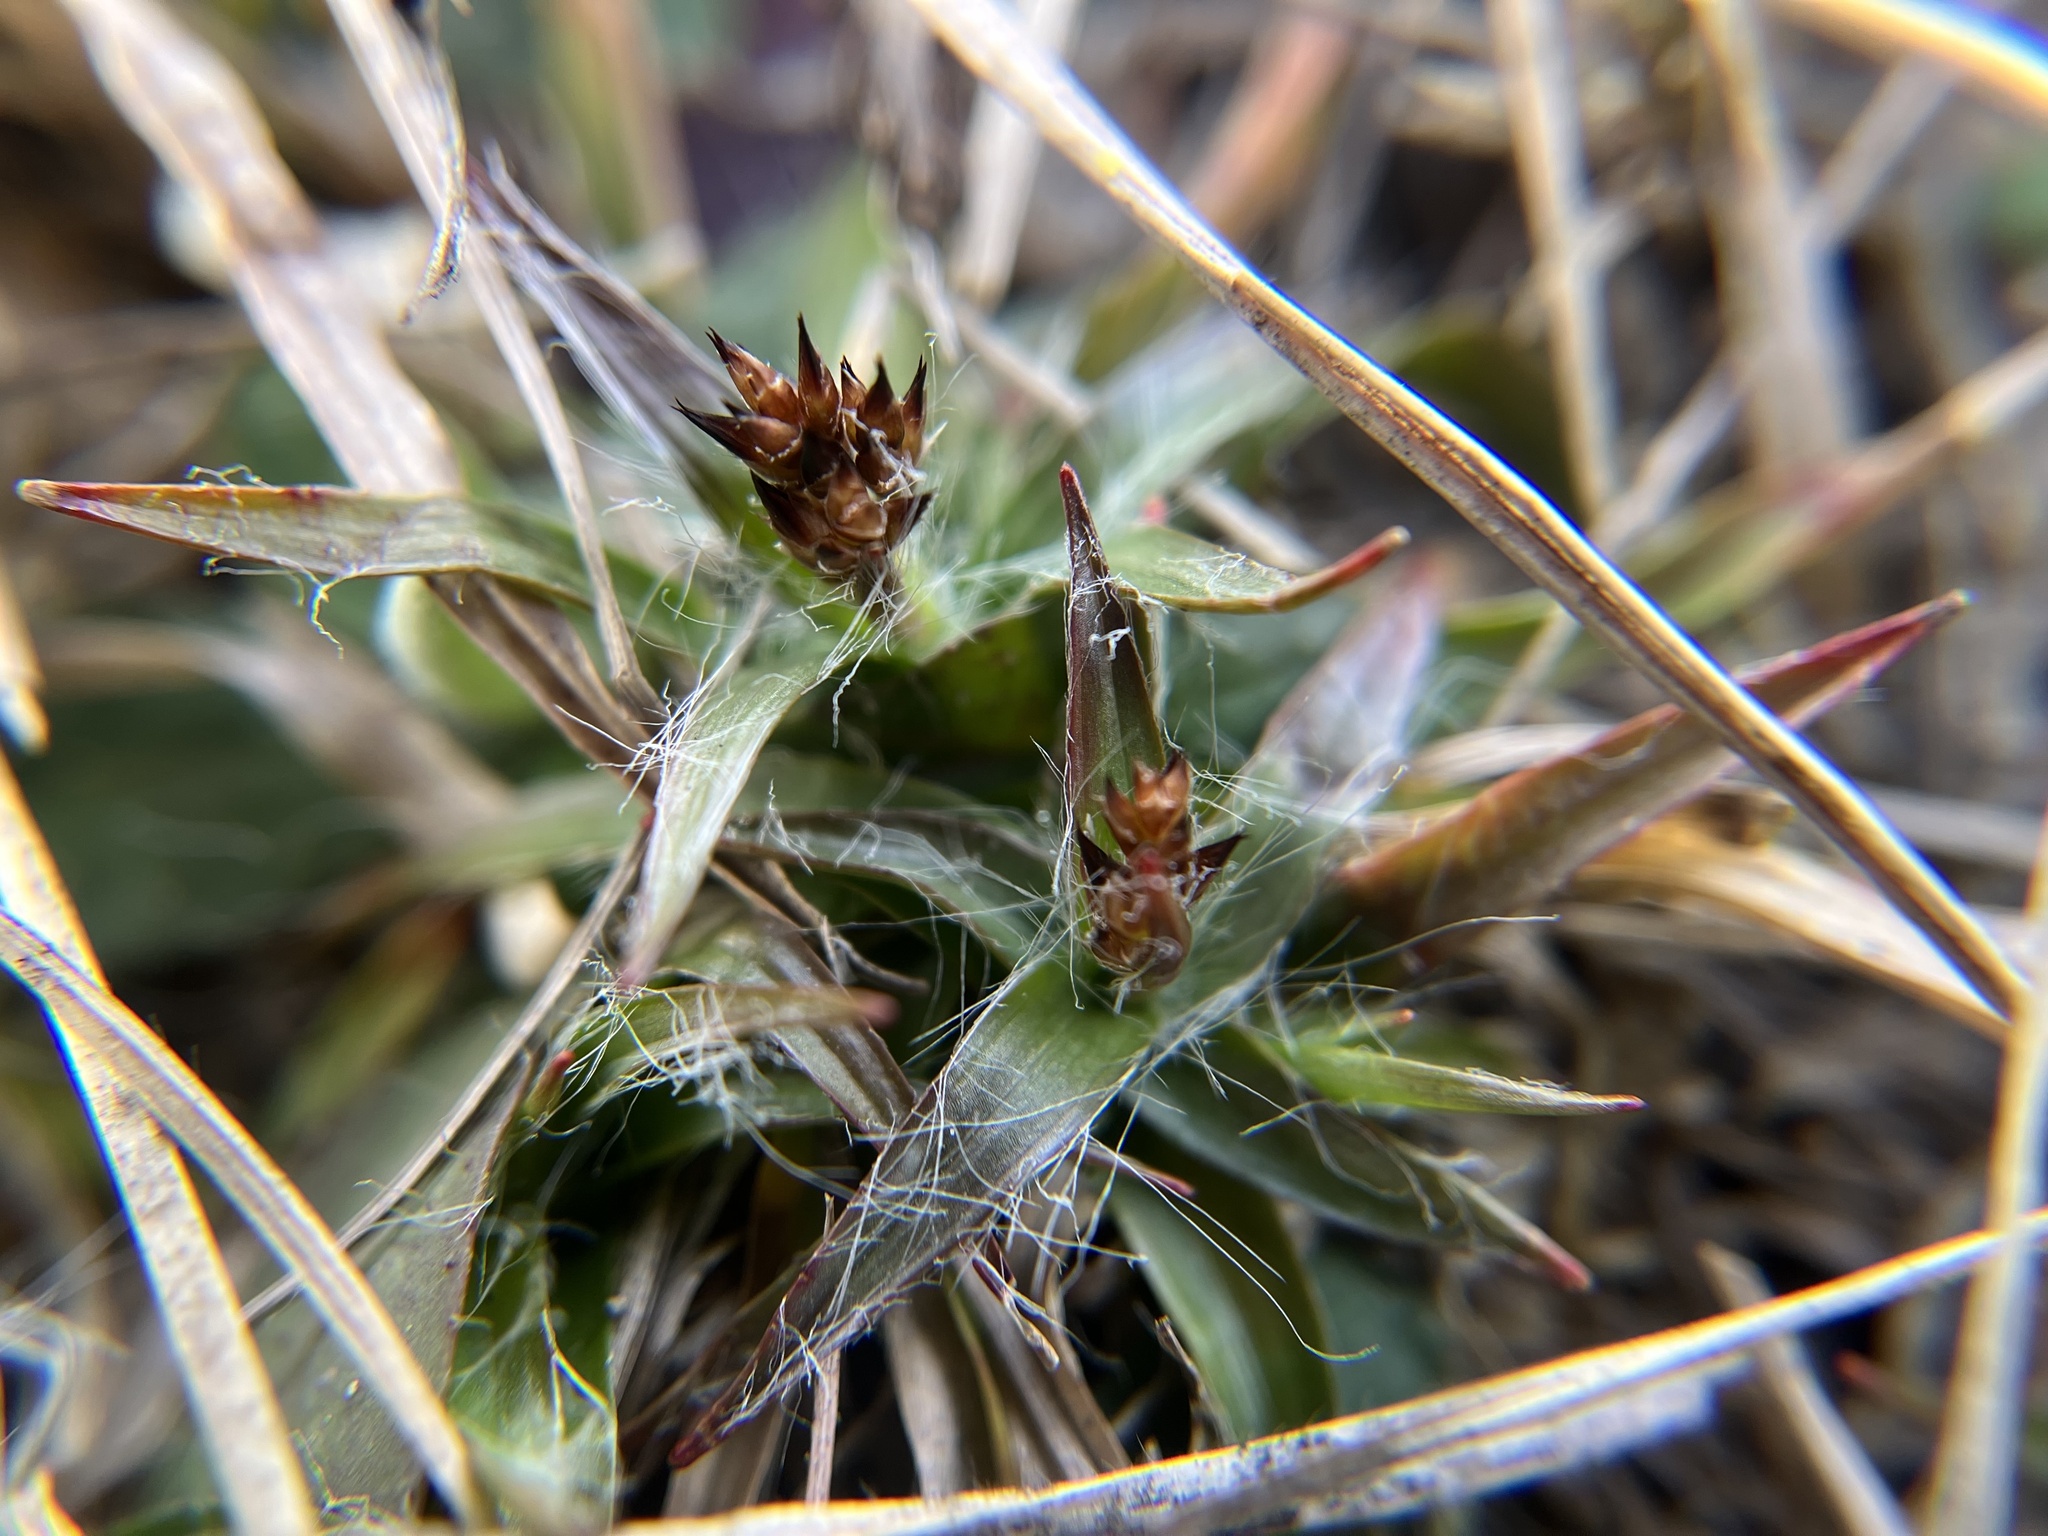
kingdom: Plantae
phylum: Tracheophyta
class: Liliopsida
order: Poales
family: Juncaceae
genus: Luzula
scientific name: Luzula campestris
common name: Field wood-rush
